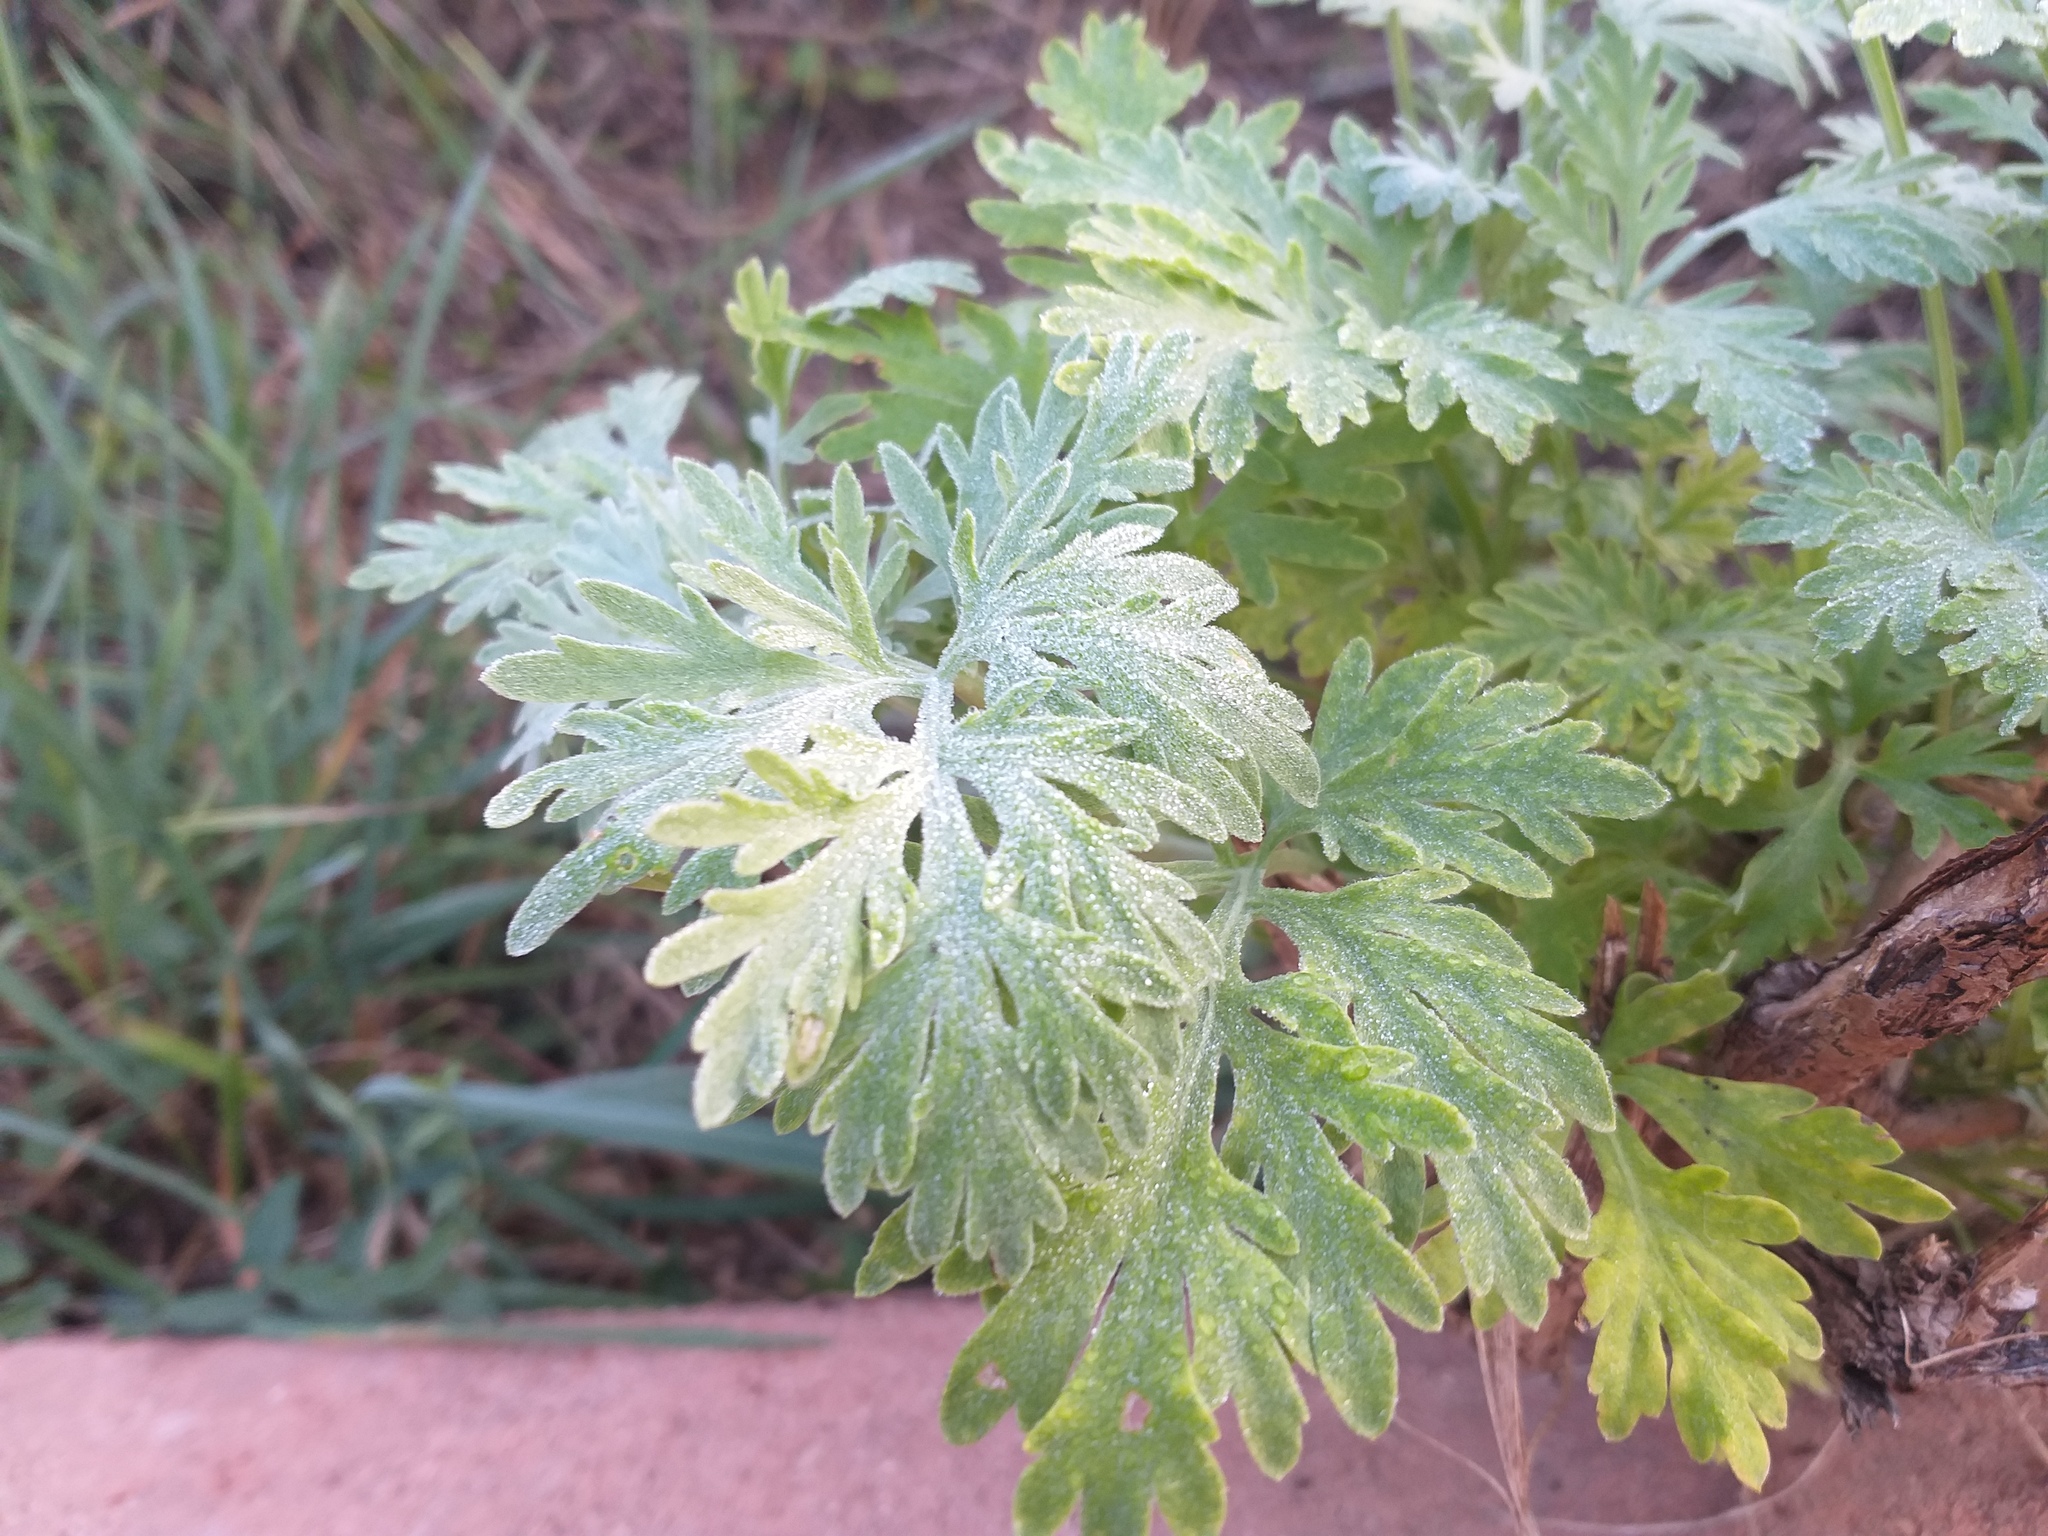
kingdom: Plantae
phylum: Tracheophyta
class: Magnoliopsida
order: Asterales
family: Asteraceae
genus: Artemisia
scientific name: Artemisia absinthium
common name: Wormwood
